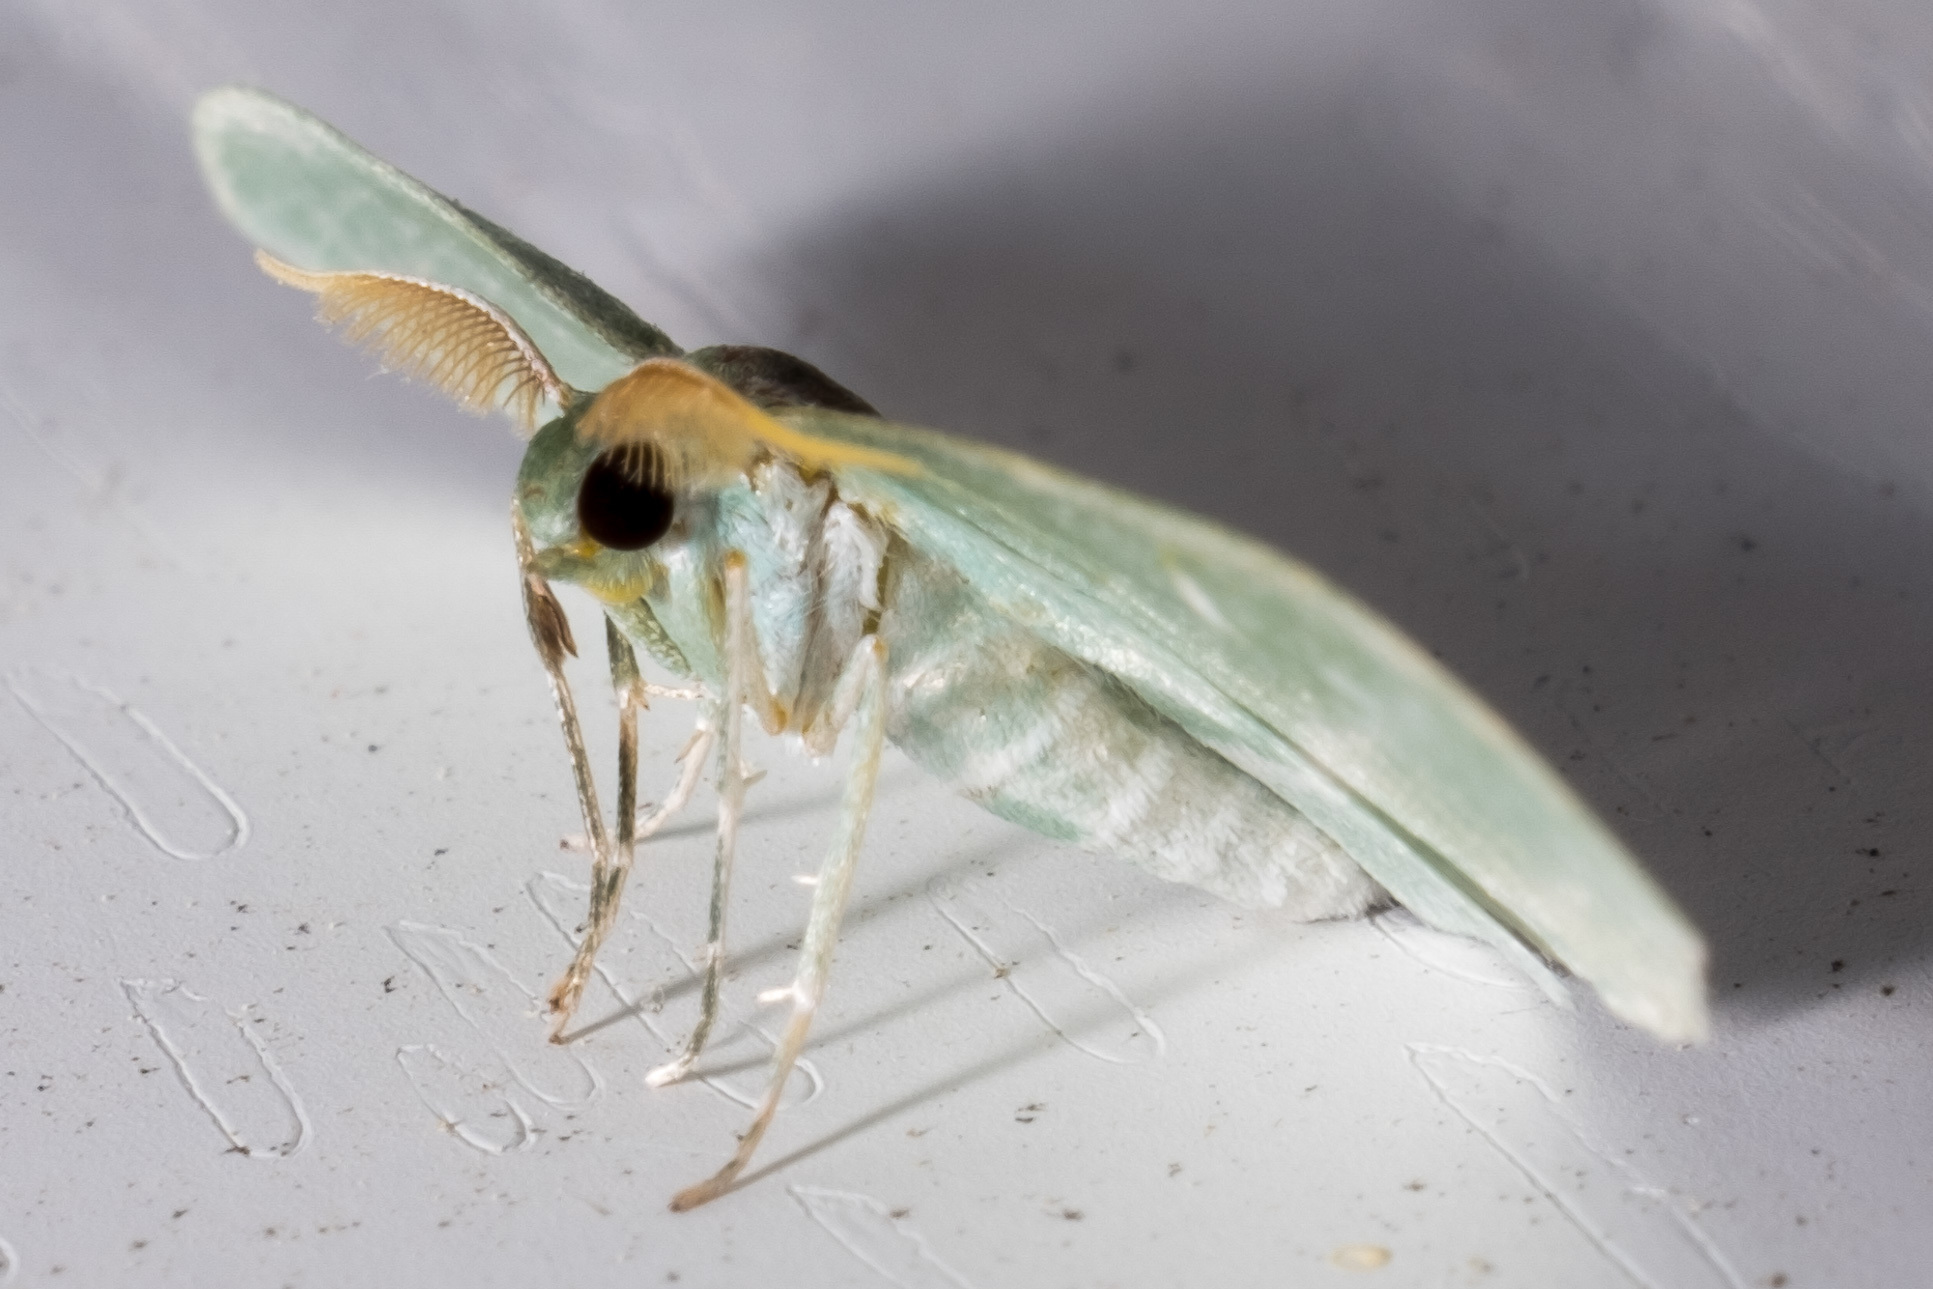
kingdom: Animalia
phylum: Arthropoda
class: Insecta
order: Lepidoptera
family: Geometridae
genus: Dyspteris
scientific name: Dyspteris abortivaria
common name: Bad-wing
